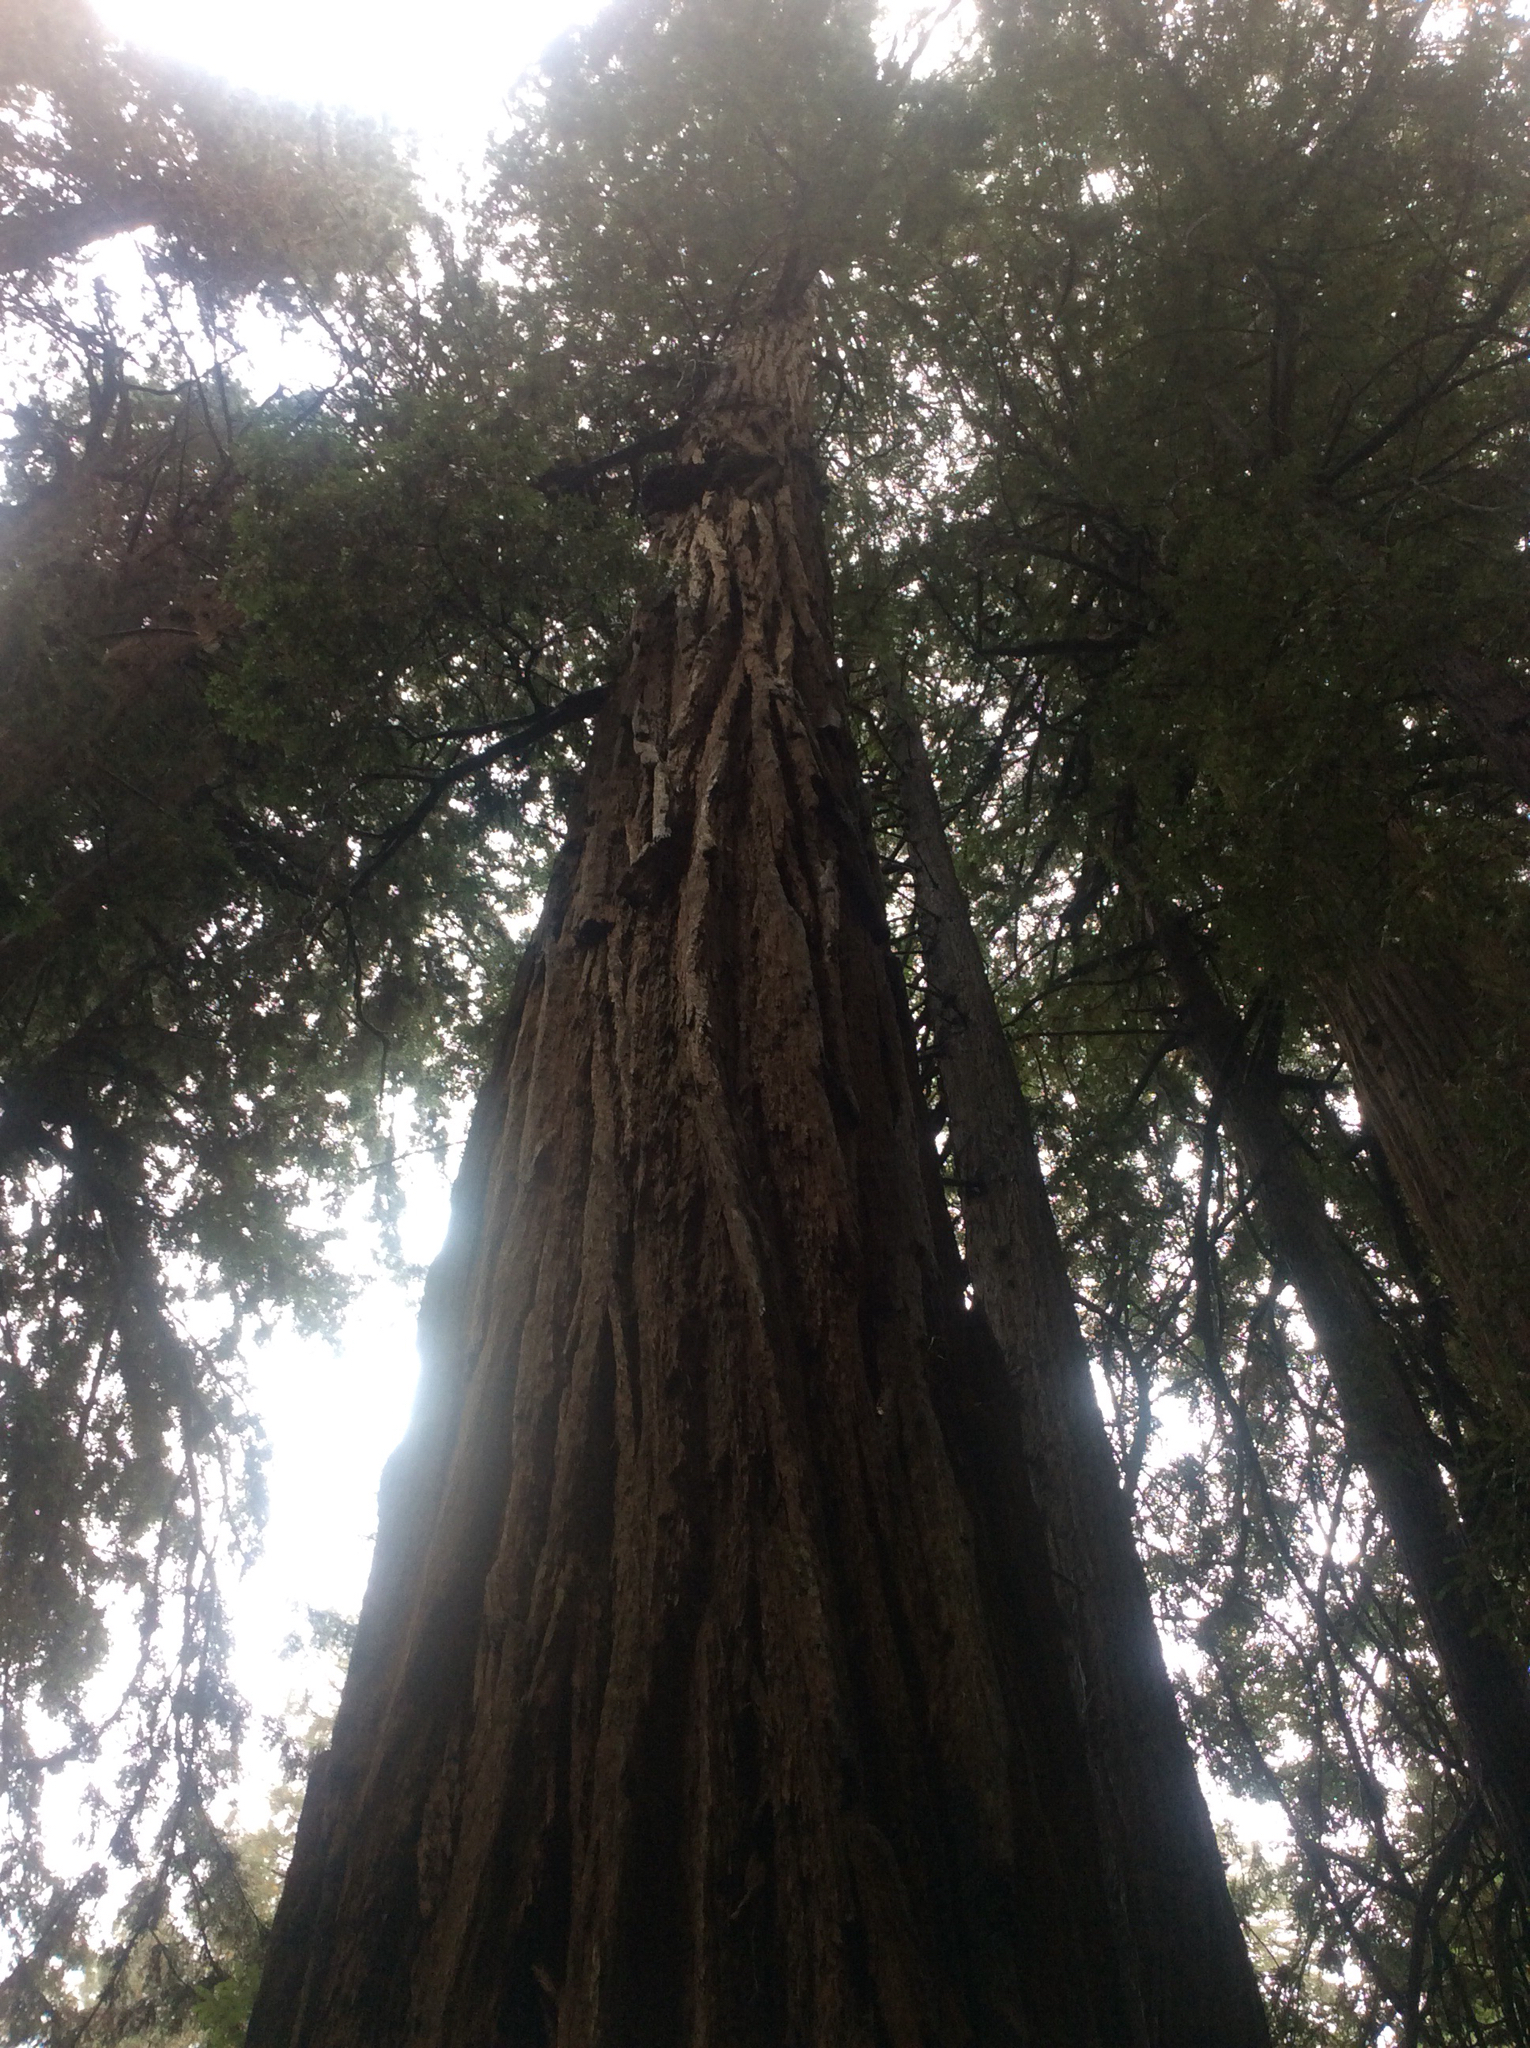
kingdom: Plantae
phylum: Tracheophyta
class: Pinopsida
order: Pinales
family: Cupressaceae
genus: Sequoia
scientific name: Sequoia sempervirens
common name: Coast redwood
